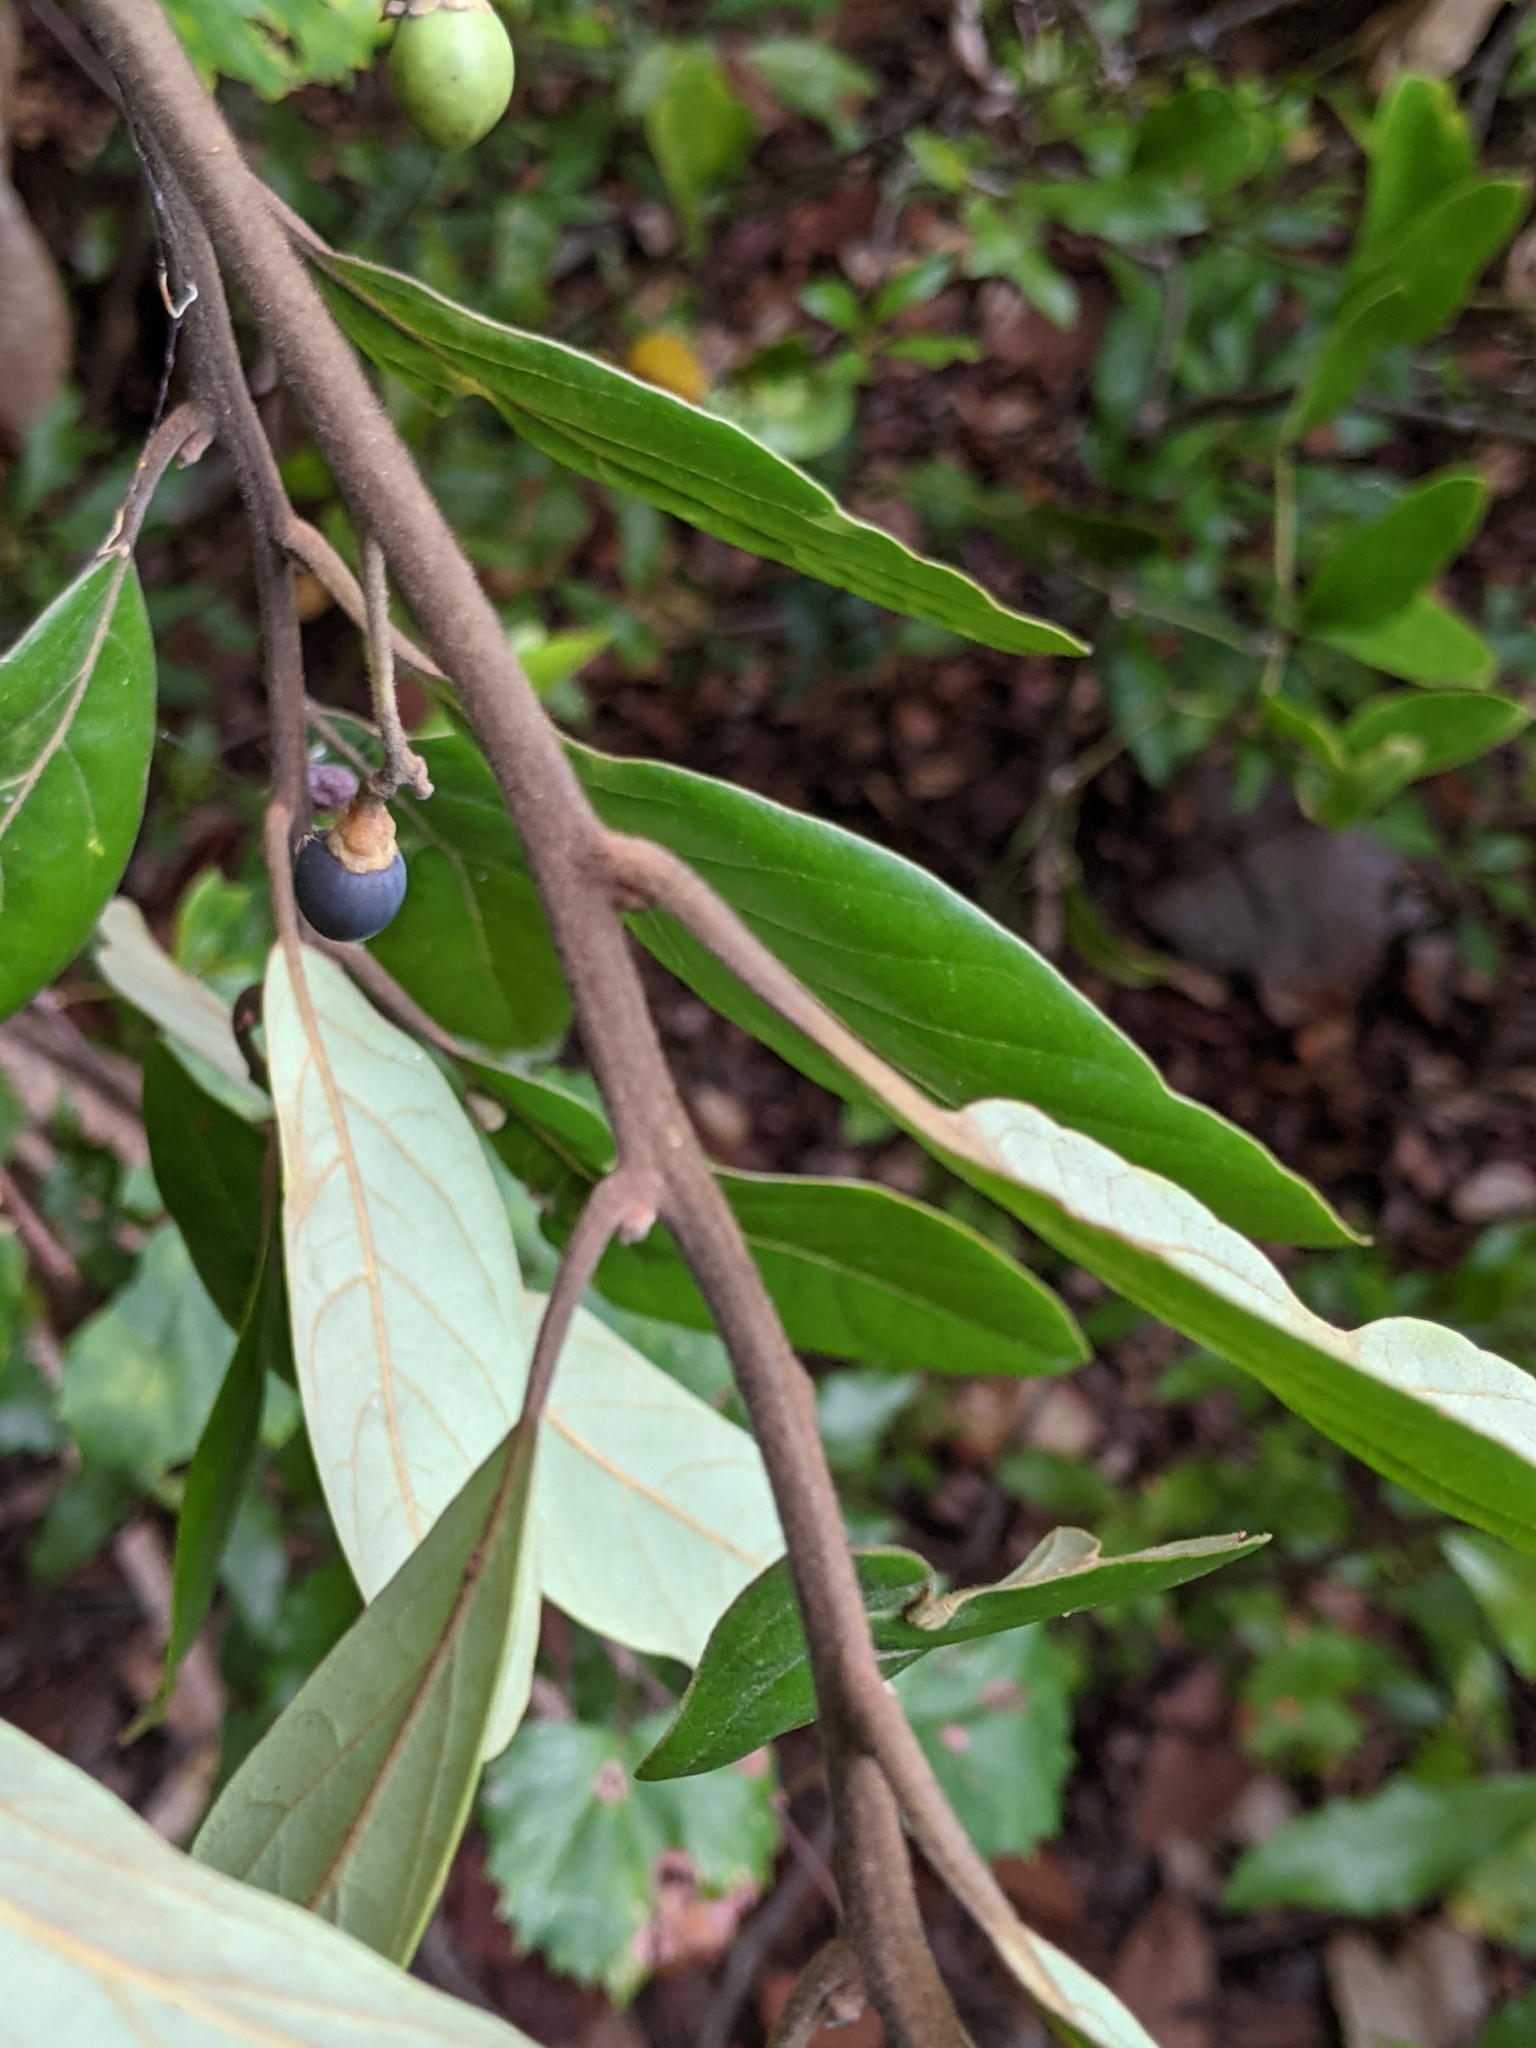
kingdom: Plantae
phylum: Tracheophyta
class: Magnoliopsida
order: Laurales
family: Lauraceae
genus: Persea
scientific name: Persea palustris
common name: Swampbay
